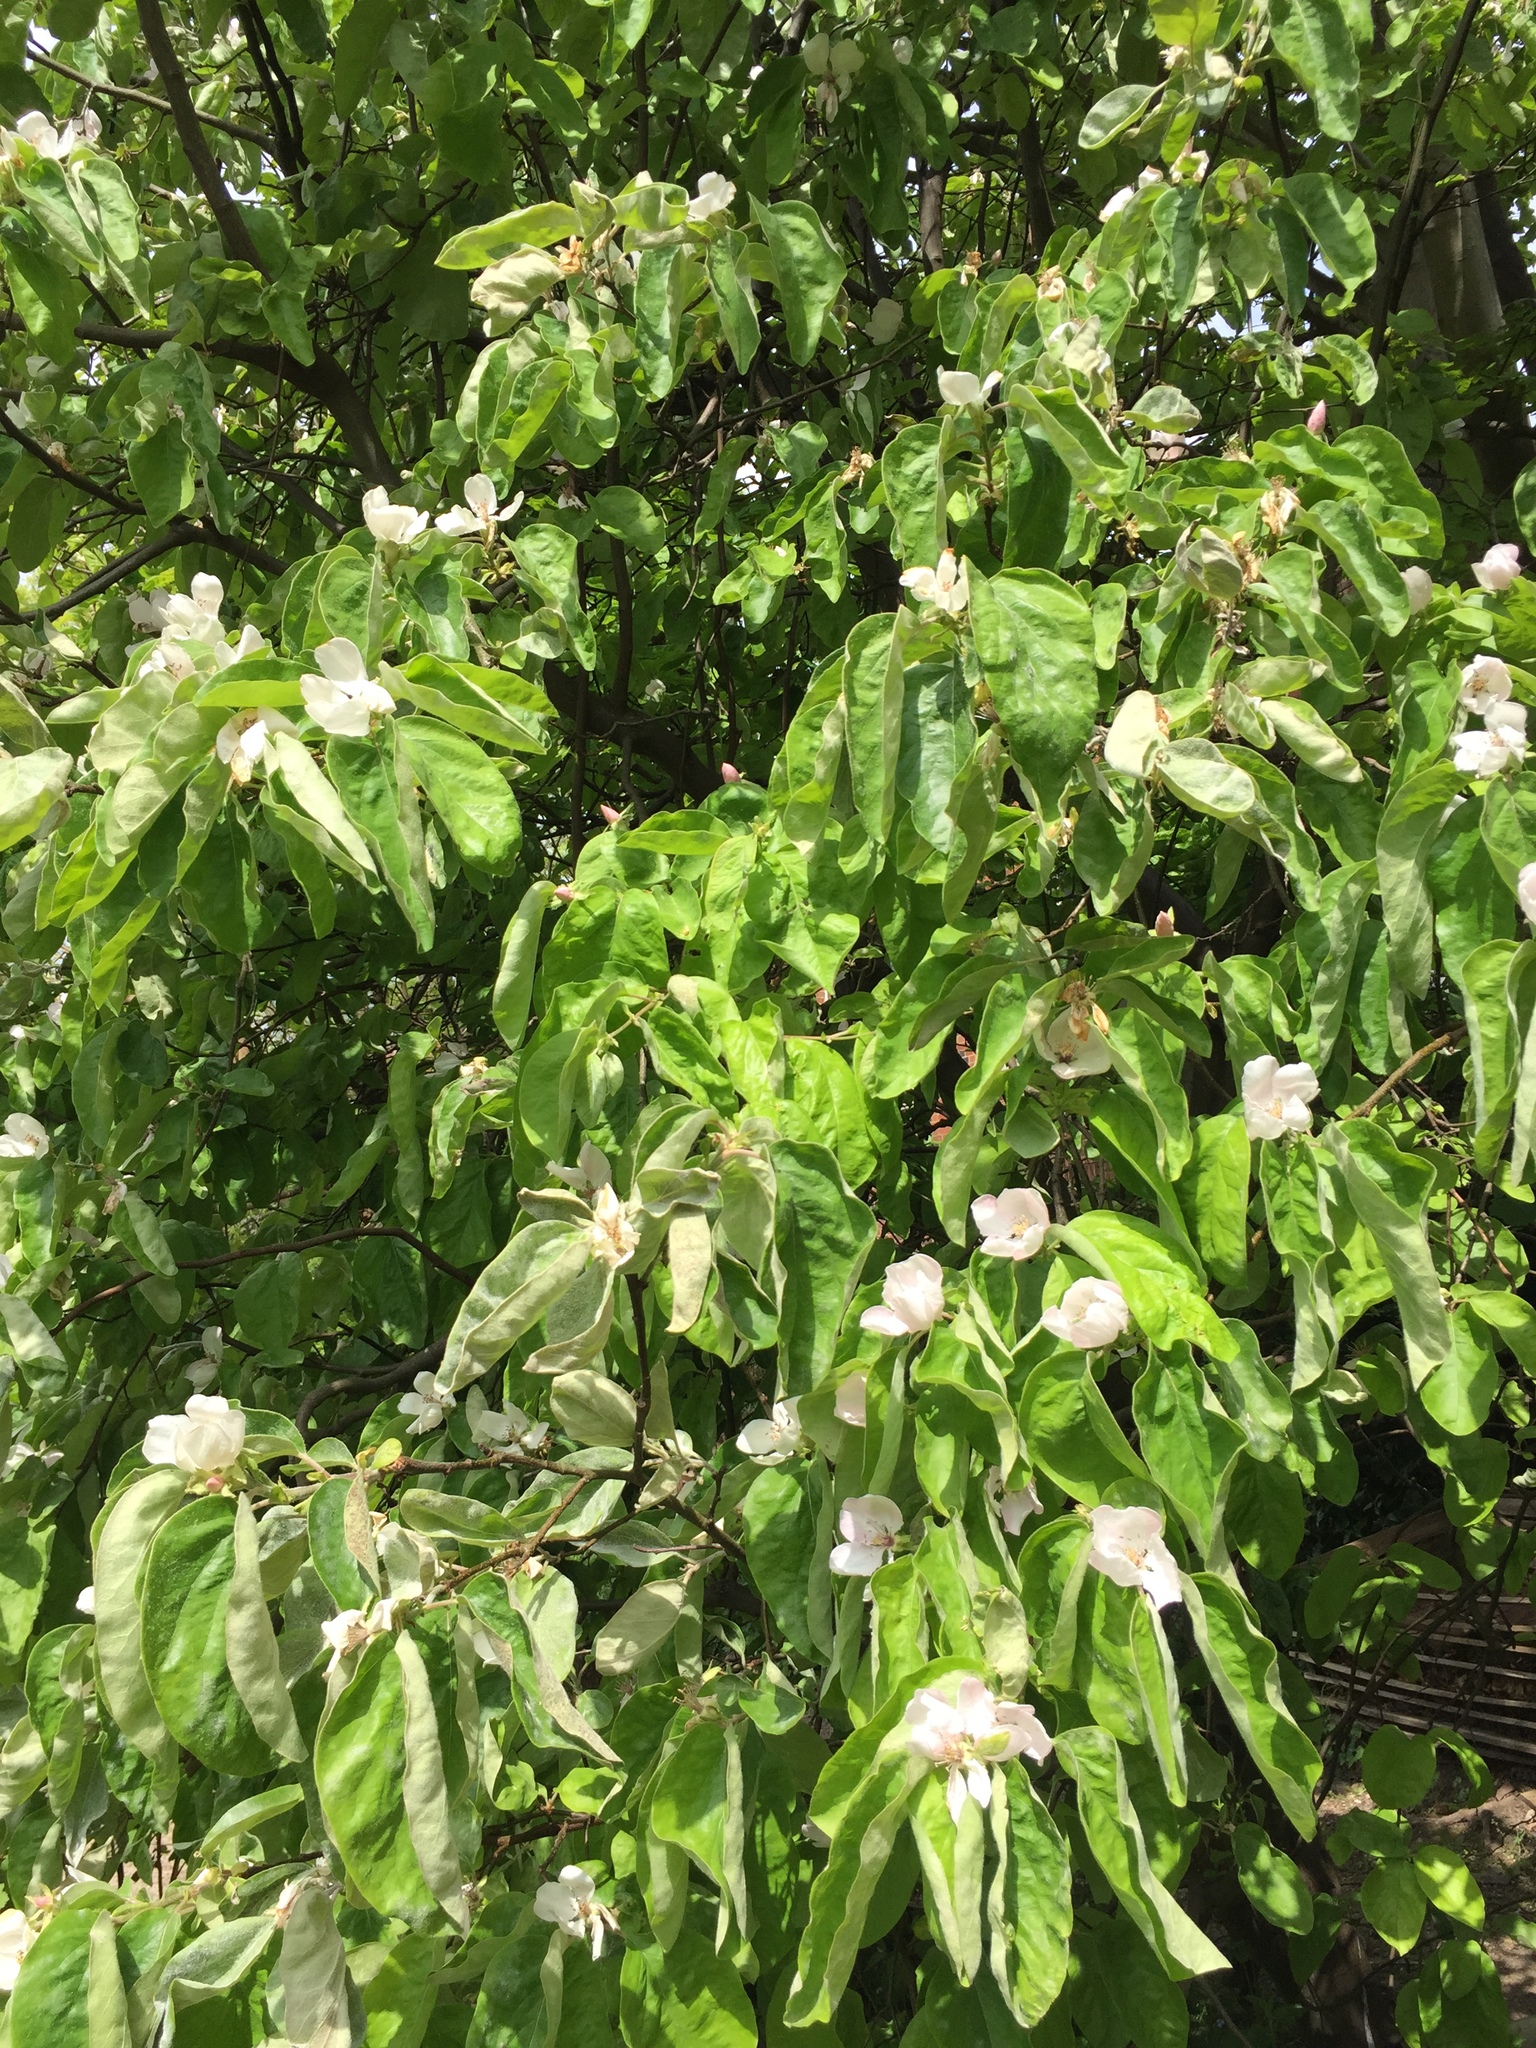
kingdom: Plantae
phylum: Tracheophyta
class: Magnoliopsida
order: Rosales
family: Rosaceae
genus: Cydonia
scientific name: Cydonia oblonga
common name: Quince
